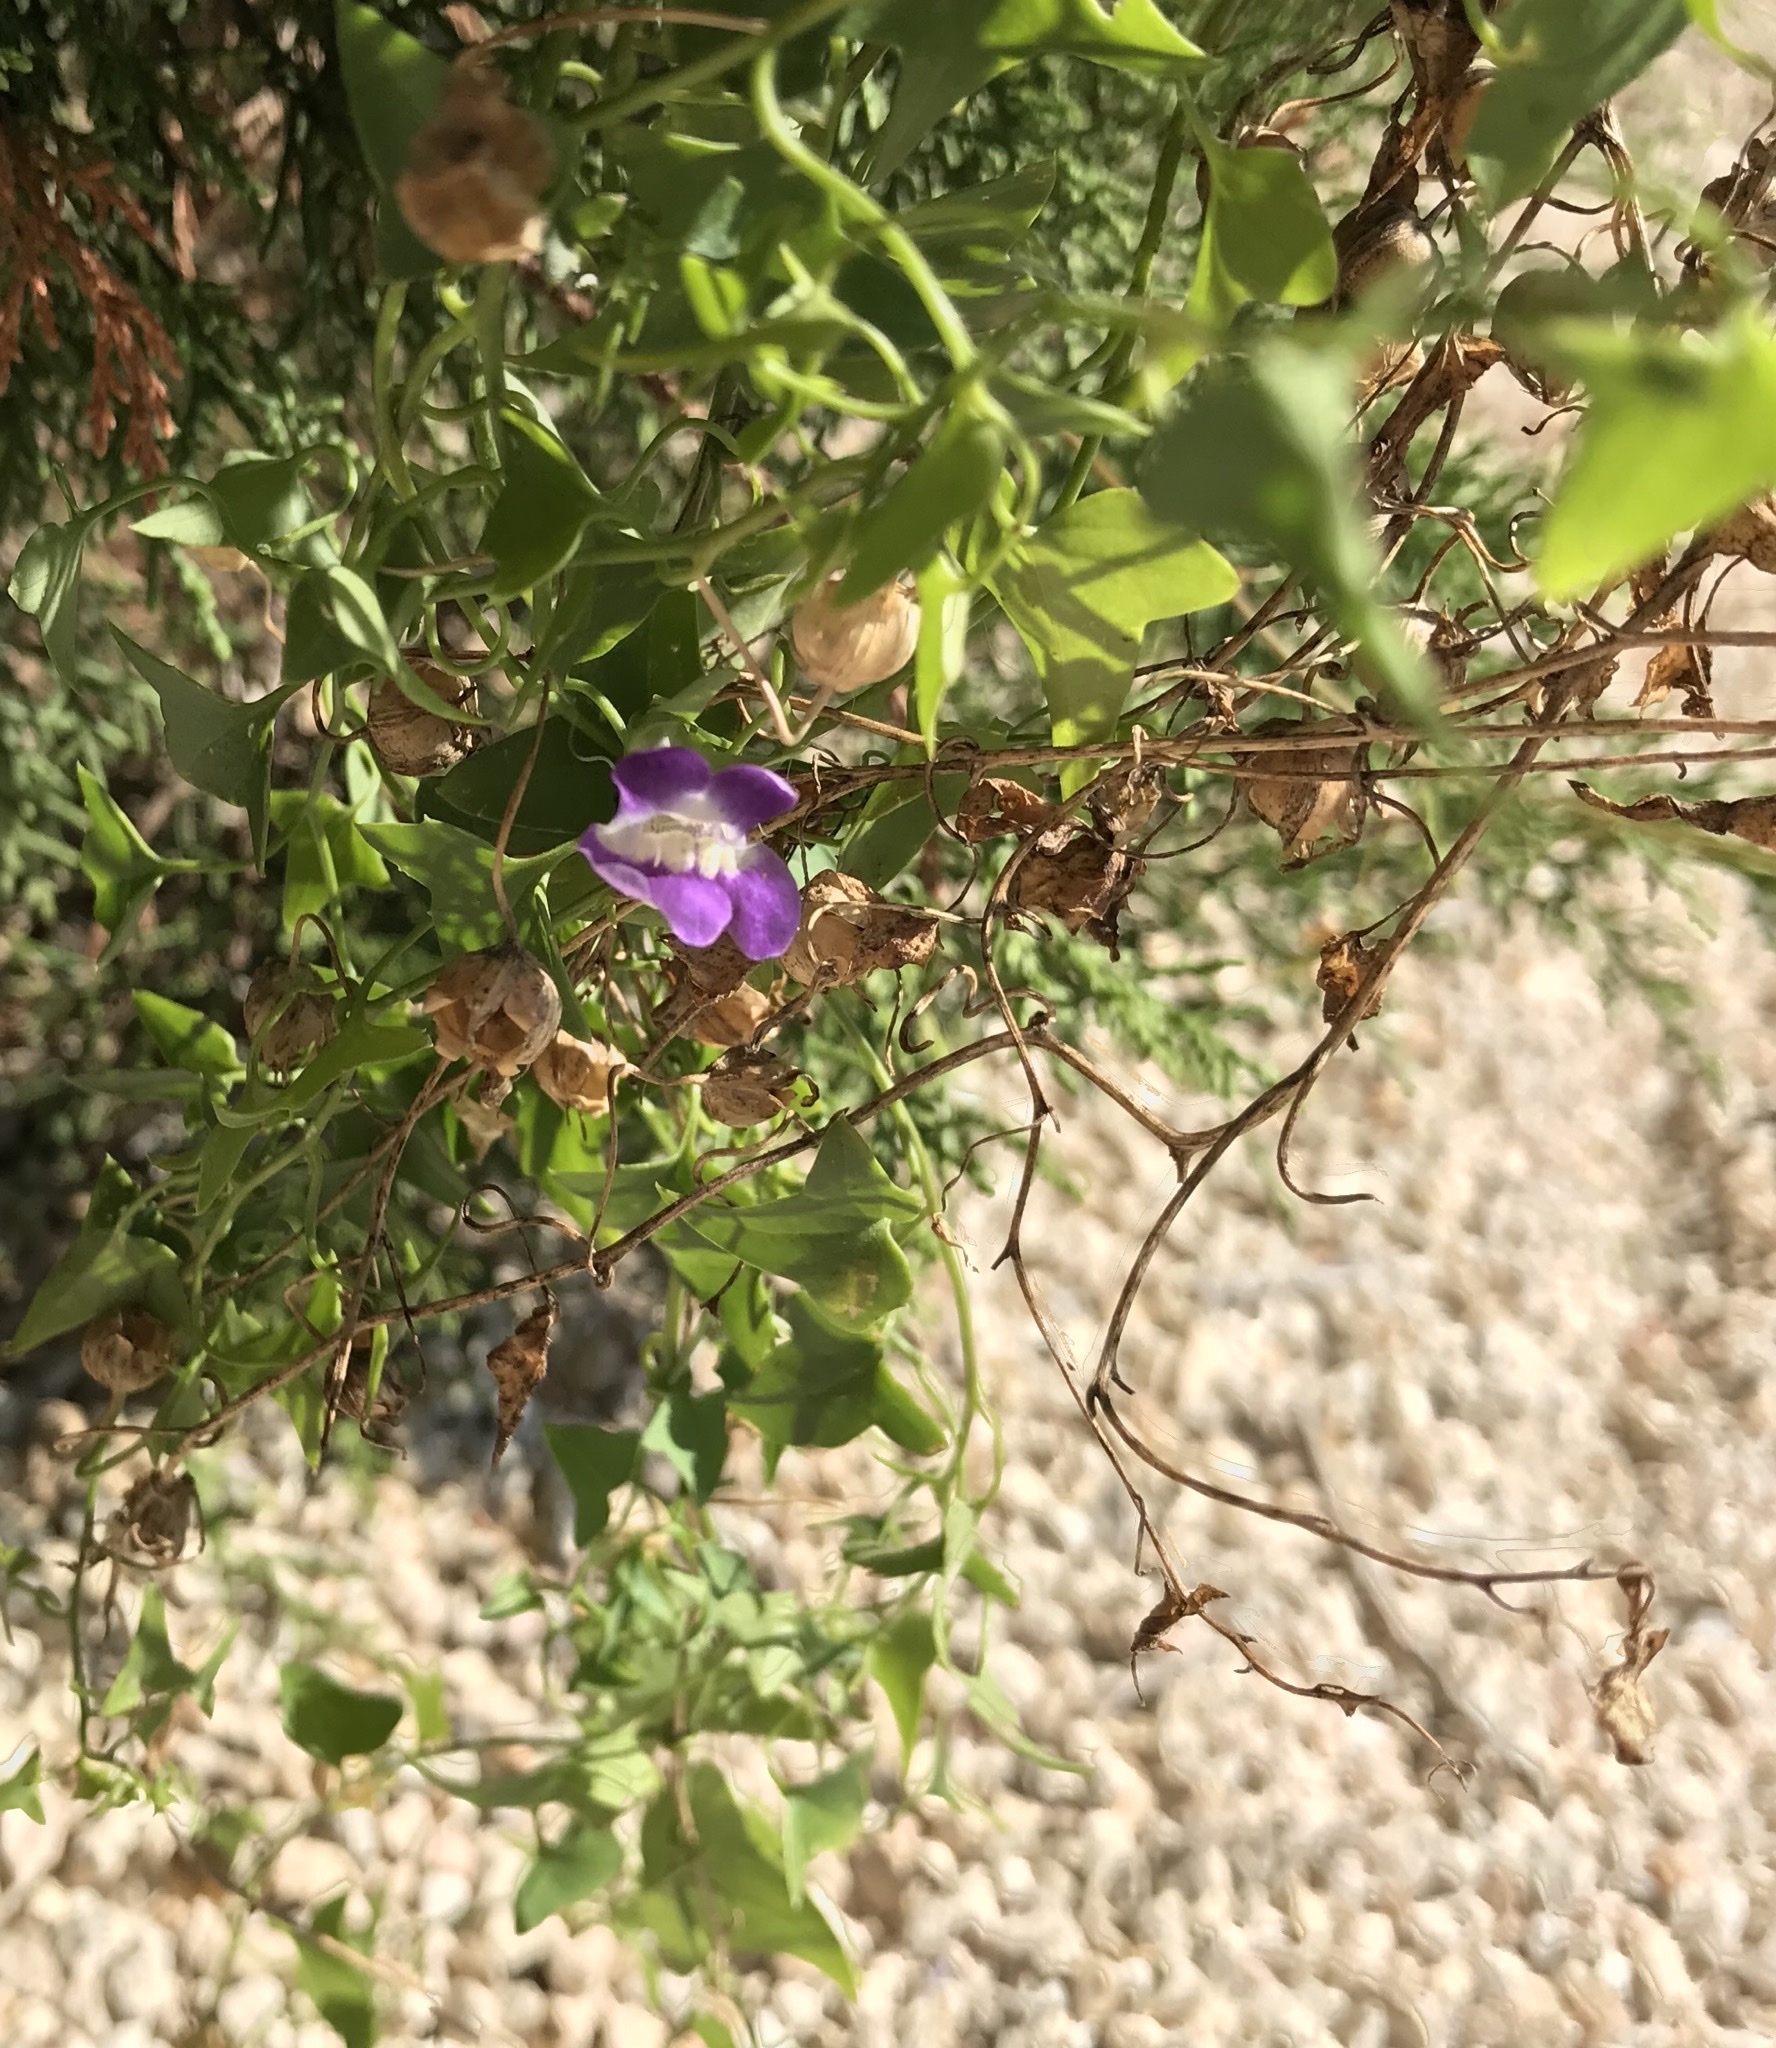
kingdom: Plantae
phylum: Tracheophyta
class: Magnoliopsida
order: Lamiales
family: Plantaginaceae
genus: Maurandella
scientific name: Maurandella antirrhiniflora
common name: Violet twining-snapdragon
